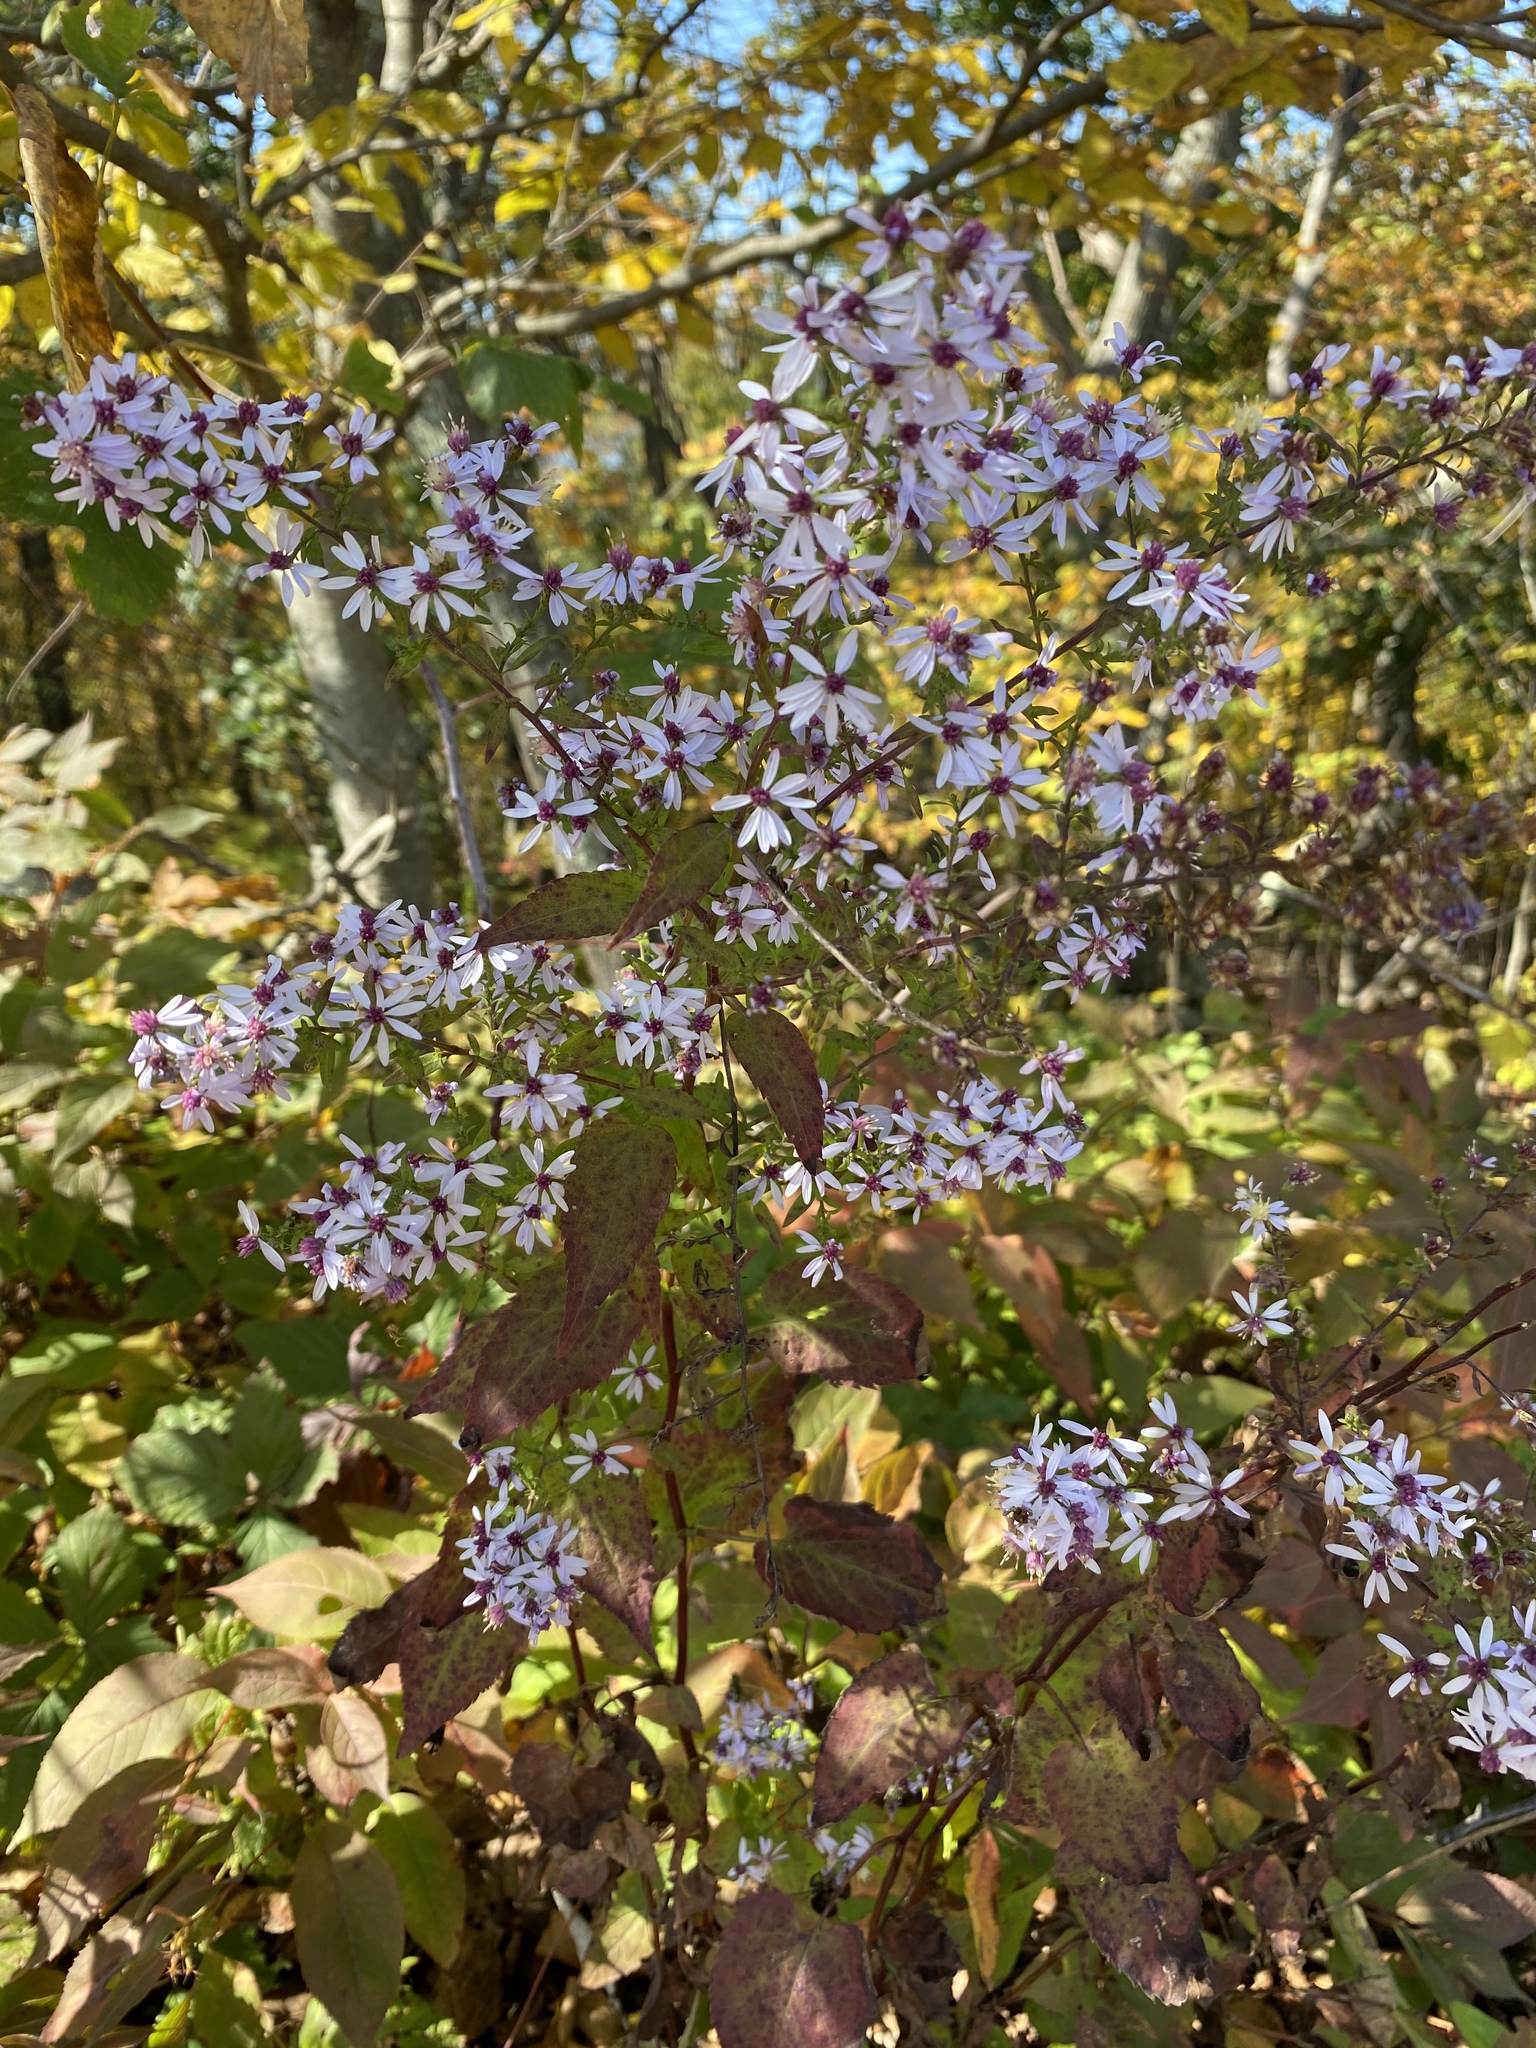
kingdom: Plantae
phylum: Tracheophyta
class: Magnoliopsida
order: Asterales
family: Asteraceae
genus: Symphyotrichum
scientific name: Symphyotrichum cordifolium
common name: Beeweed
